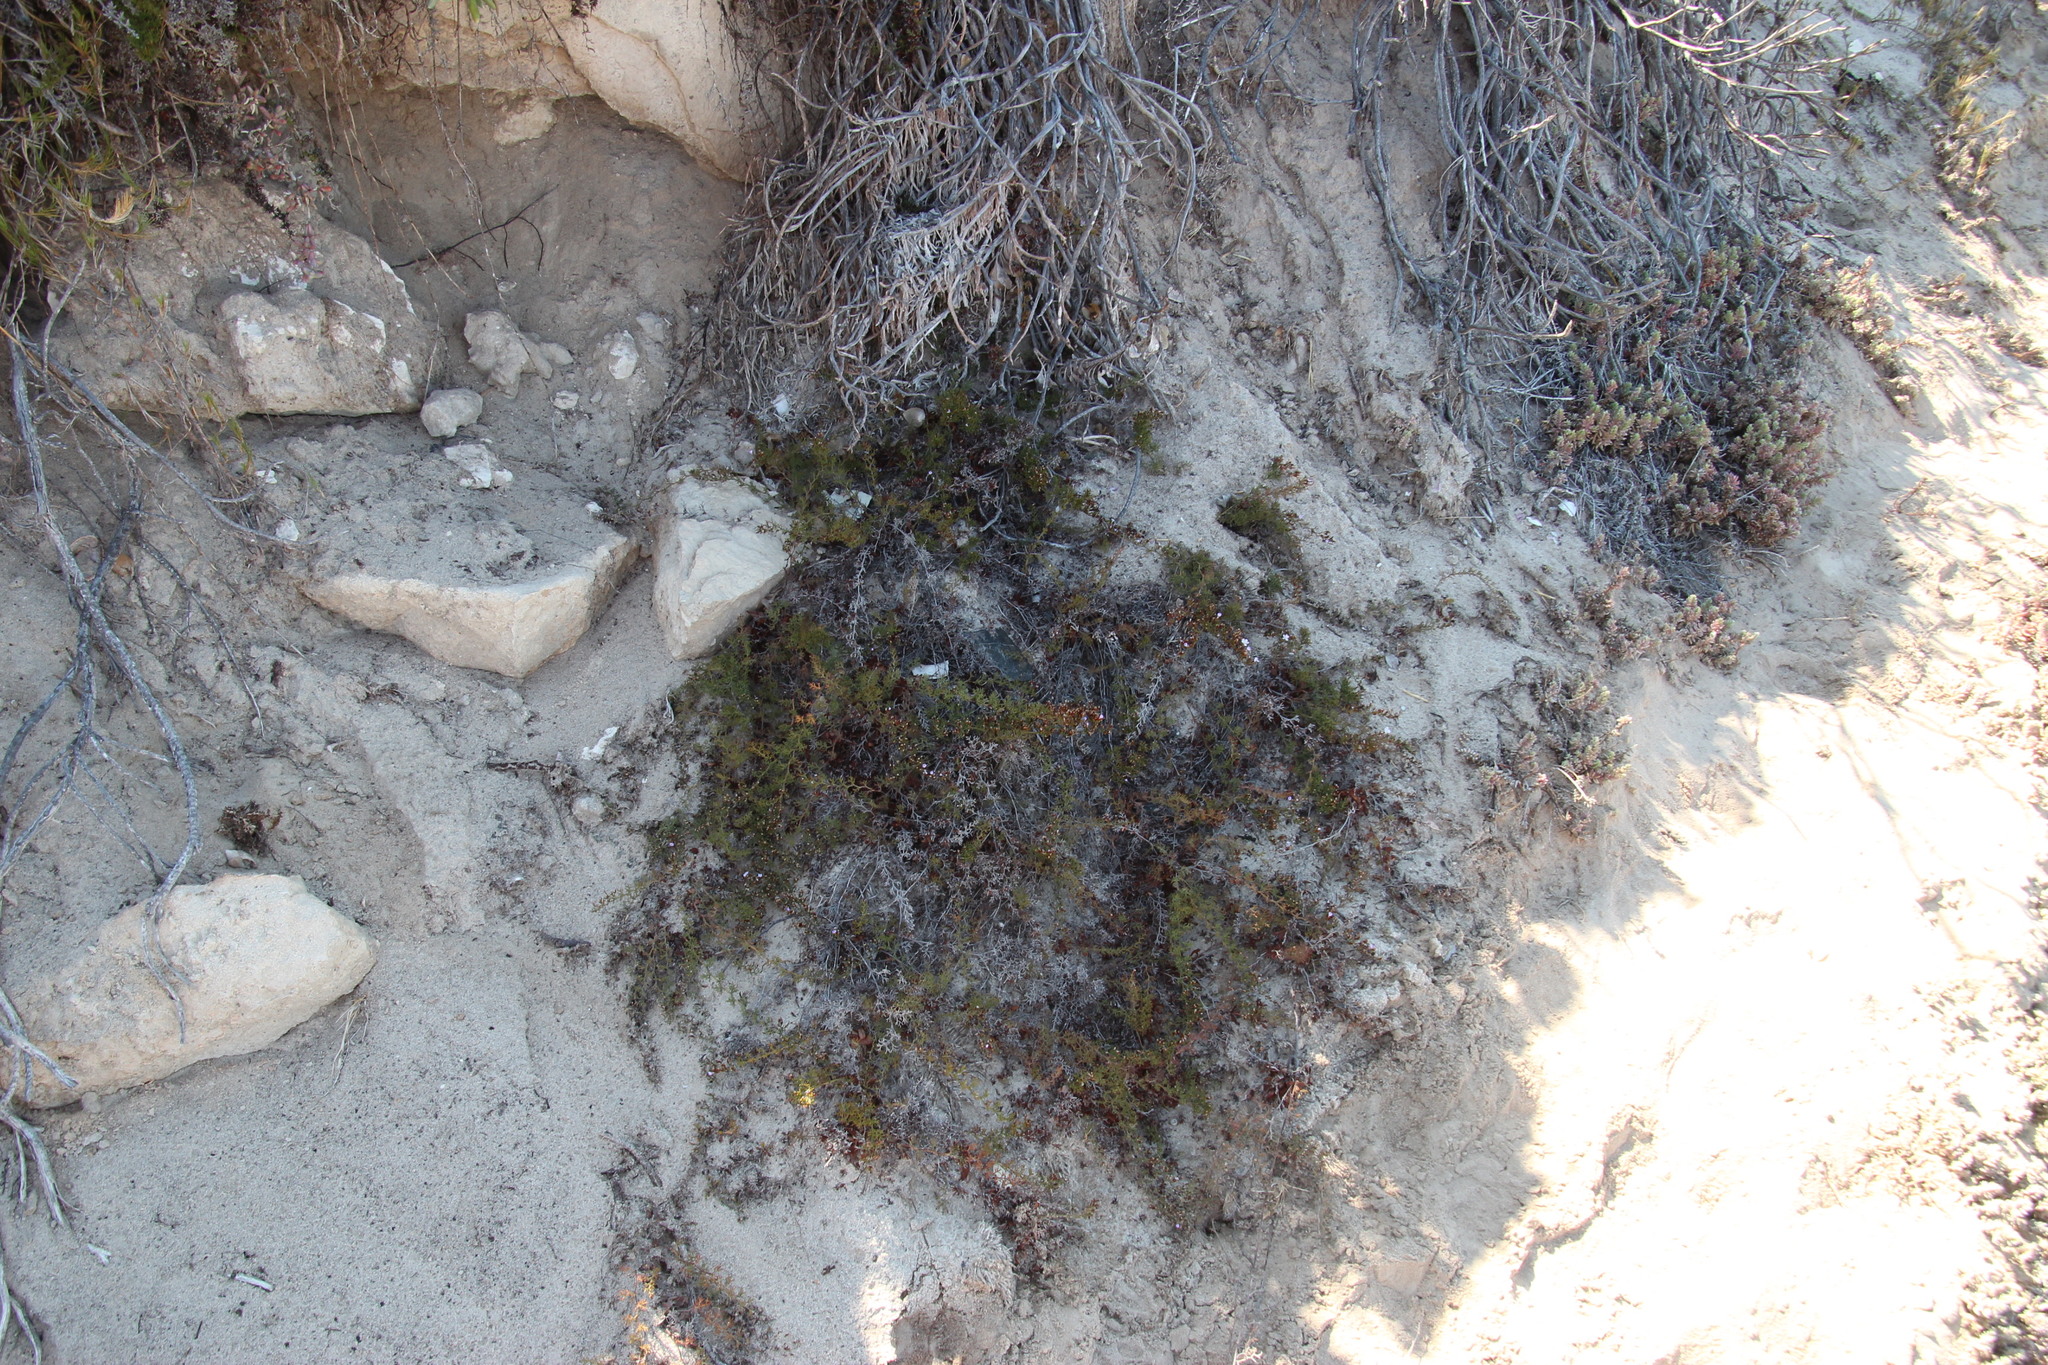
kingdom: Plantae
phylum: Tracheophyta
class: Magnoliopsida
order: Caryophyllales
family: Plumbaginaceae
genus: Limonium
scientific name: Limonium scabrum
